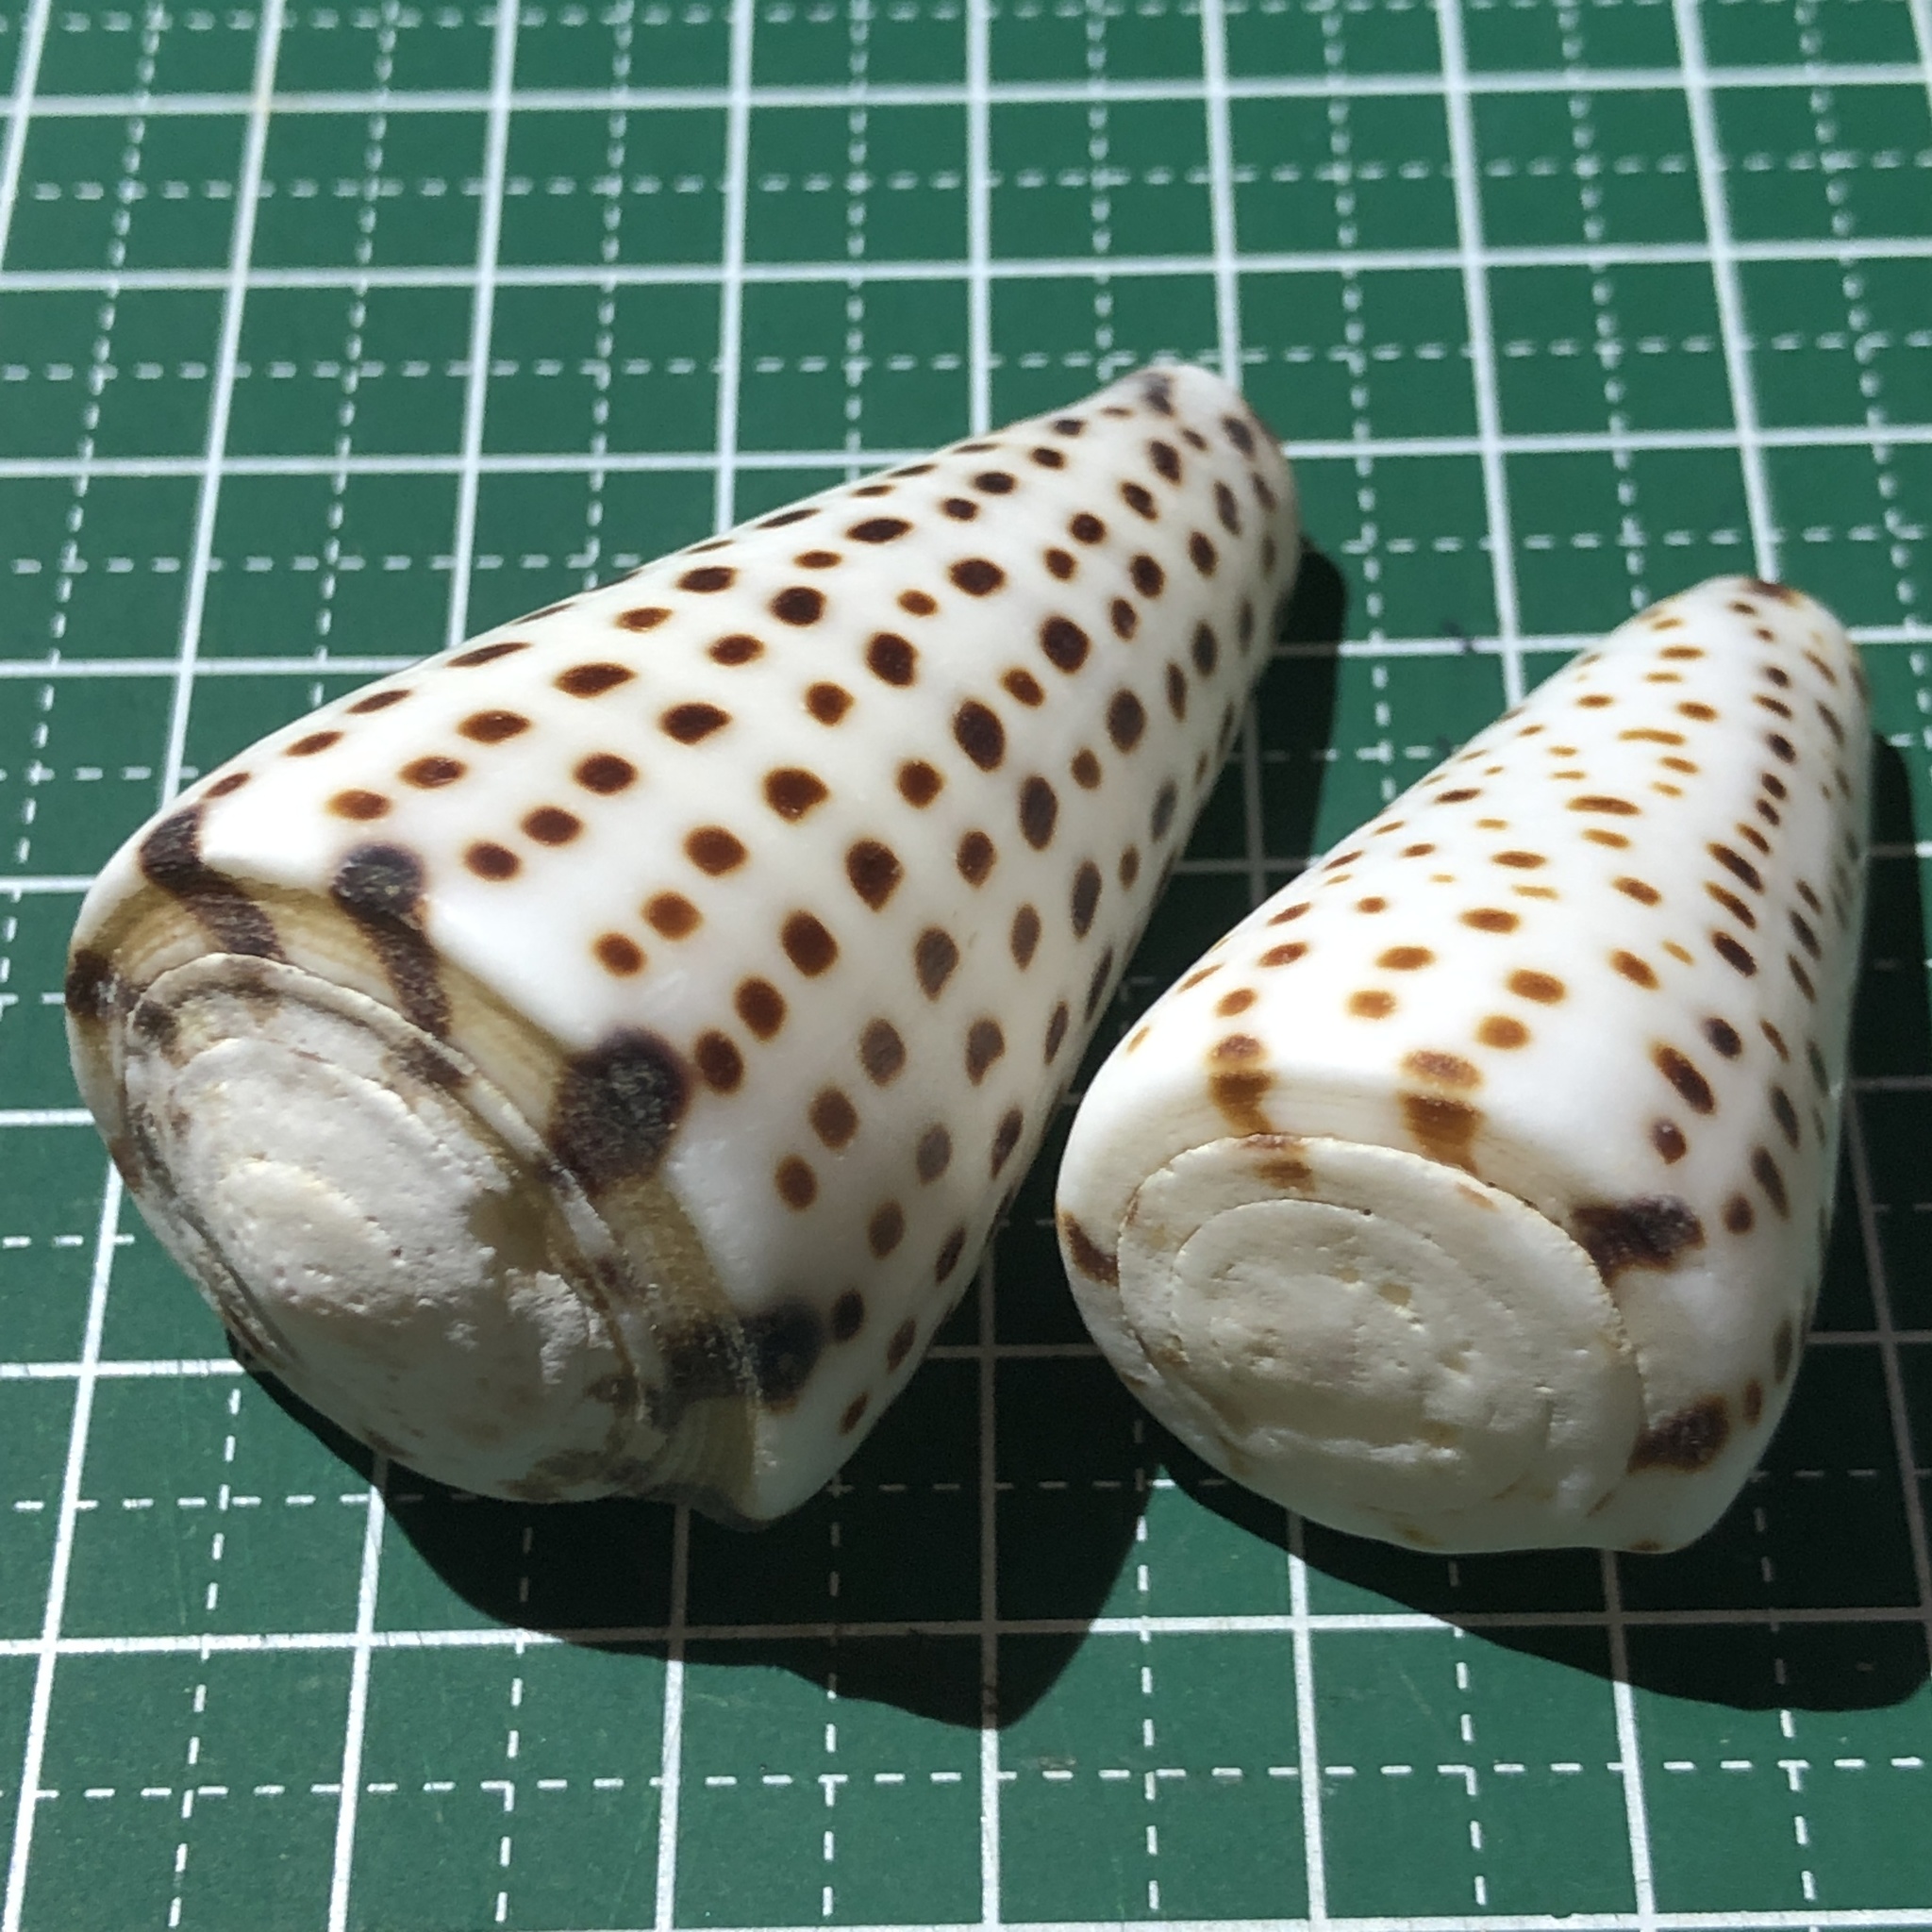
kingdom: Animalia
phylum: Mollusca
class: Gastropoda
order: Neogastropoda
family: Conidae
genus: Conus
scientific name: Conus leopardus
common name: Leopard cone
